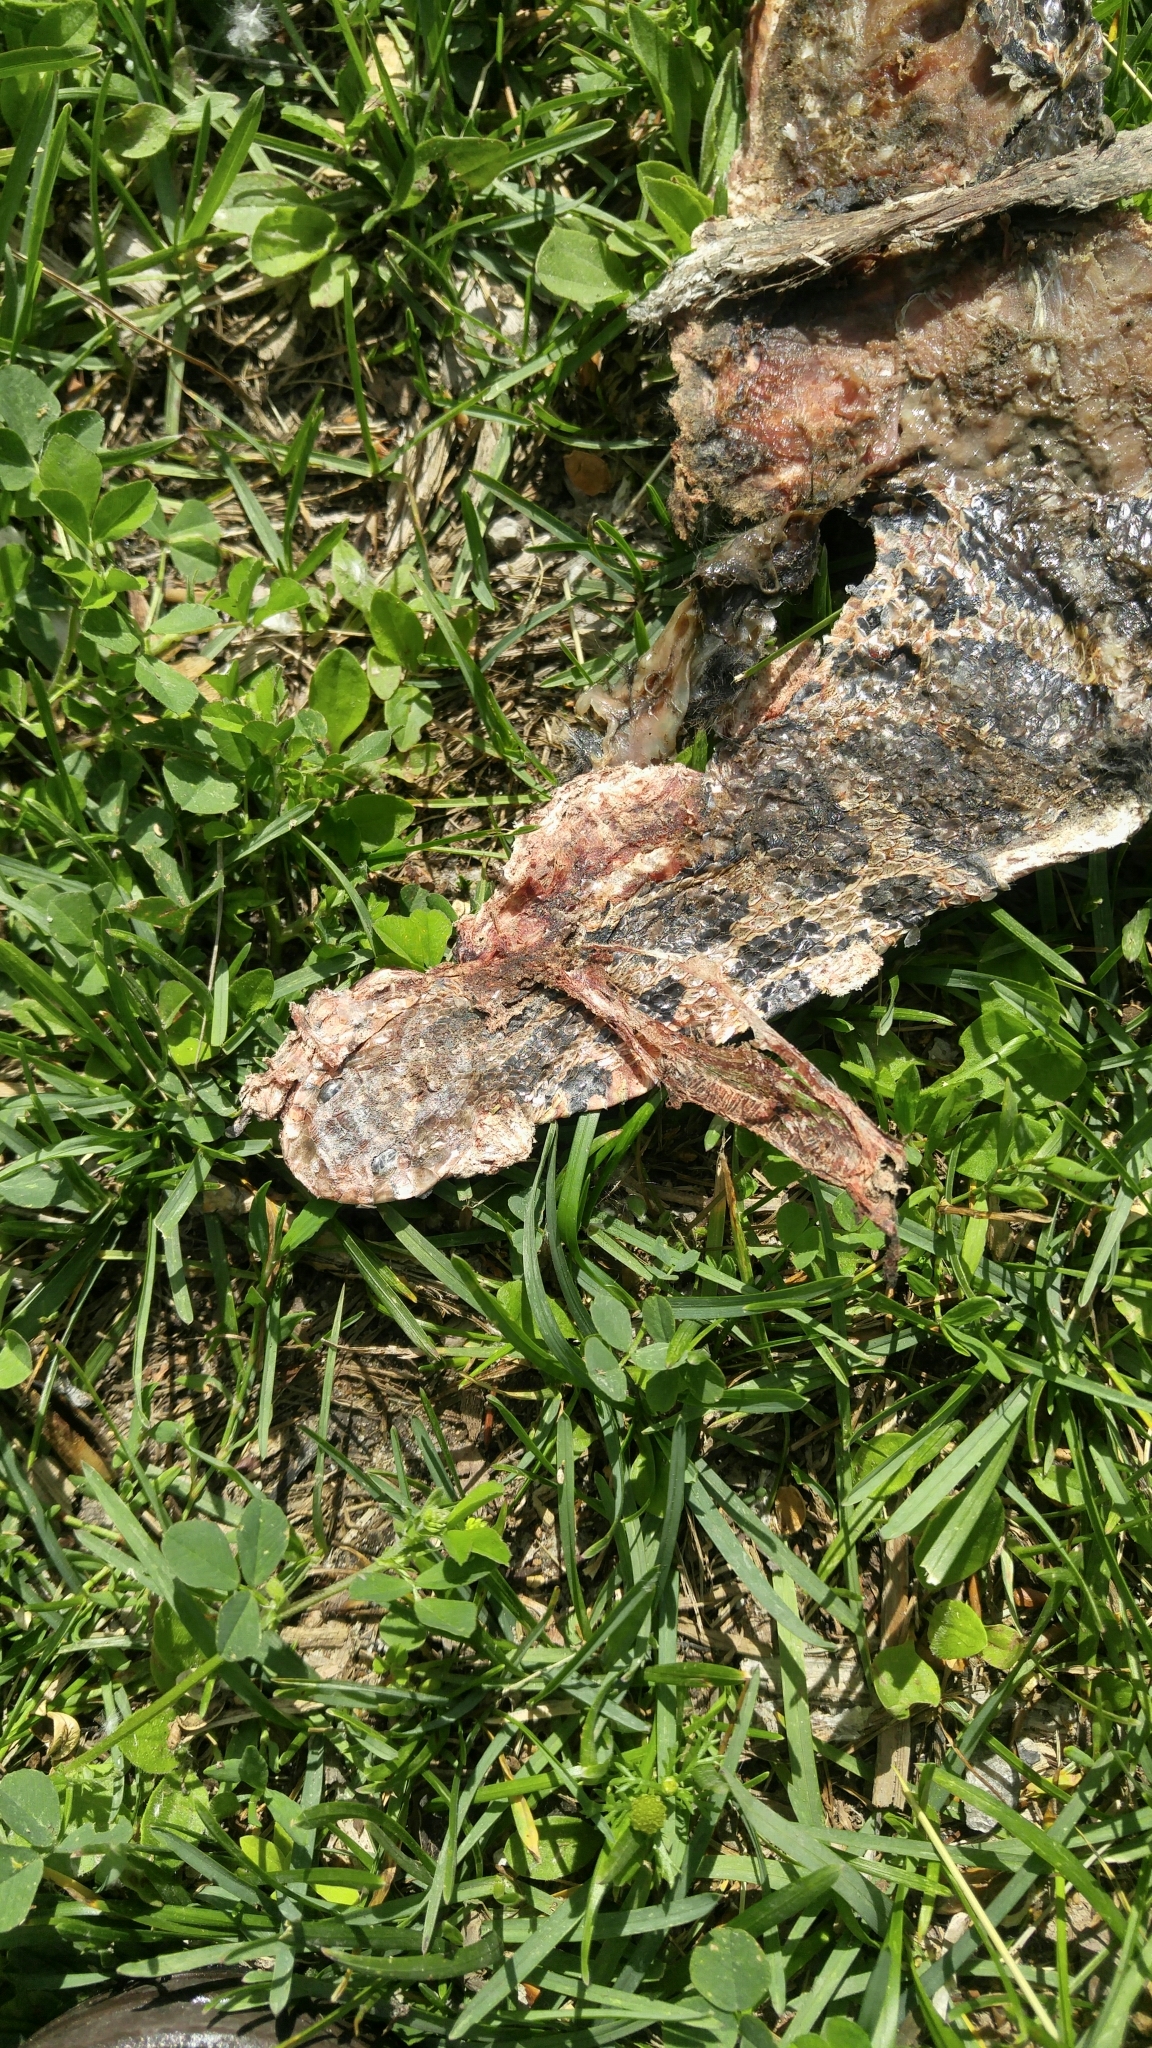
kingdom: Animalia
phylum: Chordata
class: Squamata
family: Colubridae
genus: Pantherophis
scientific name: Pantherophis vulpinus
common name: Eastern fox snake
